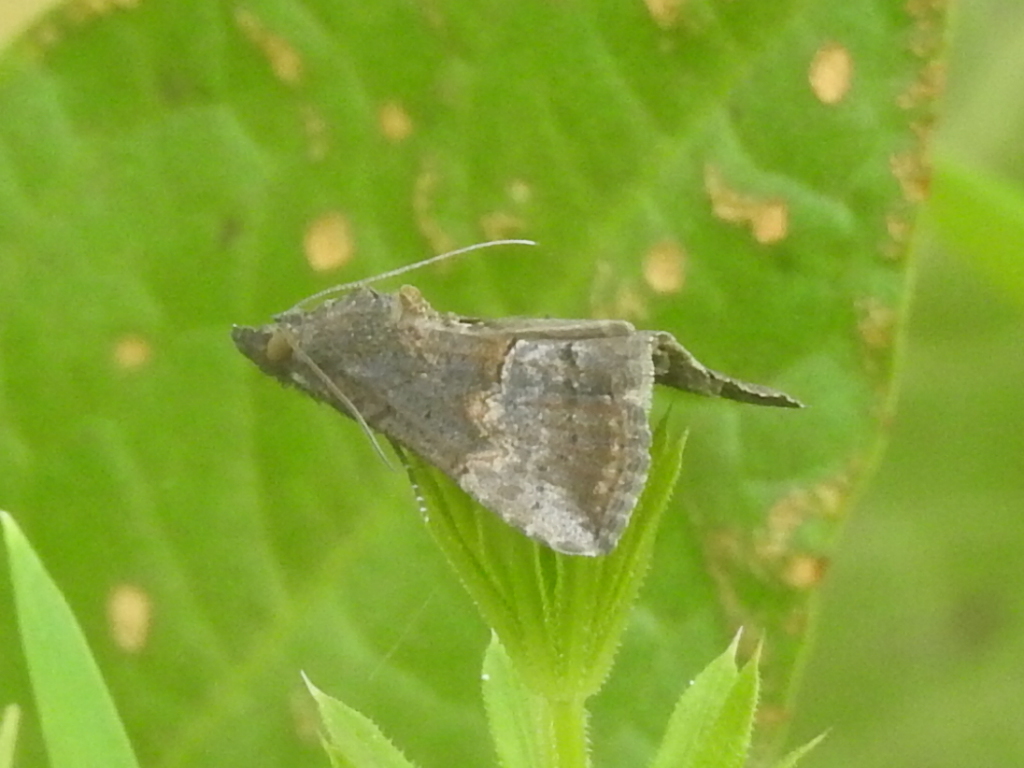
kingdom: Animalia
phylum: Arthropoda
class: Insecta
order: Lepidoptera
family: Erebidae
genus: Hypena
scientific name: Hypena scabra
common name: Green cloverworm
